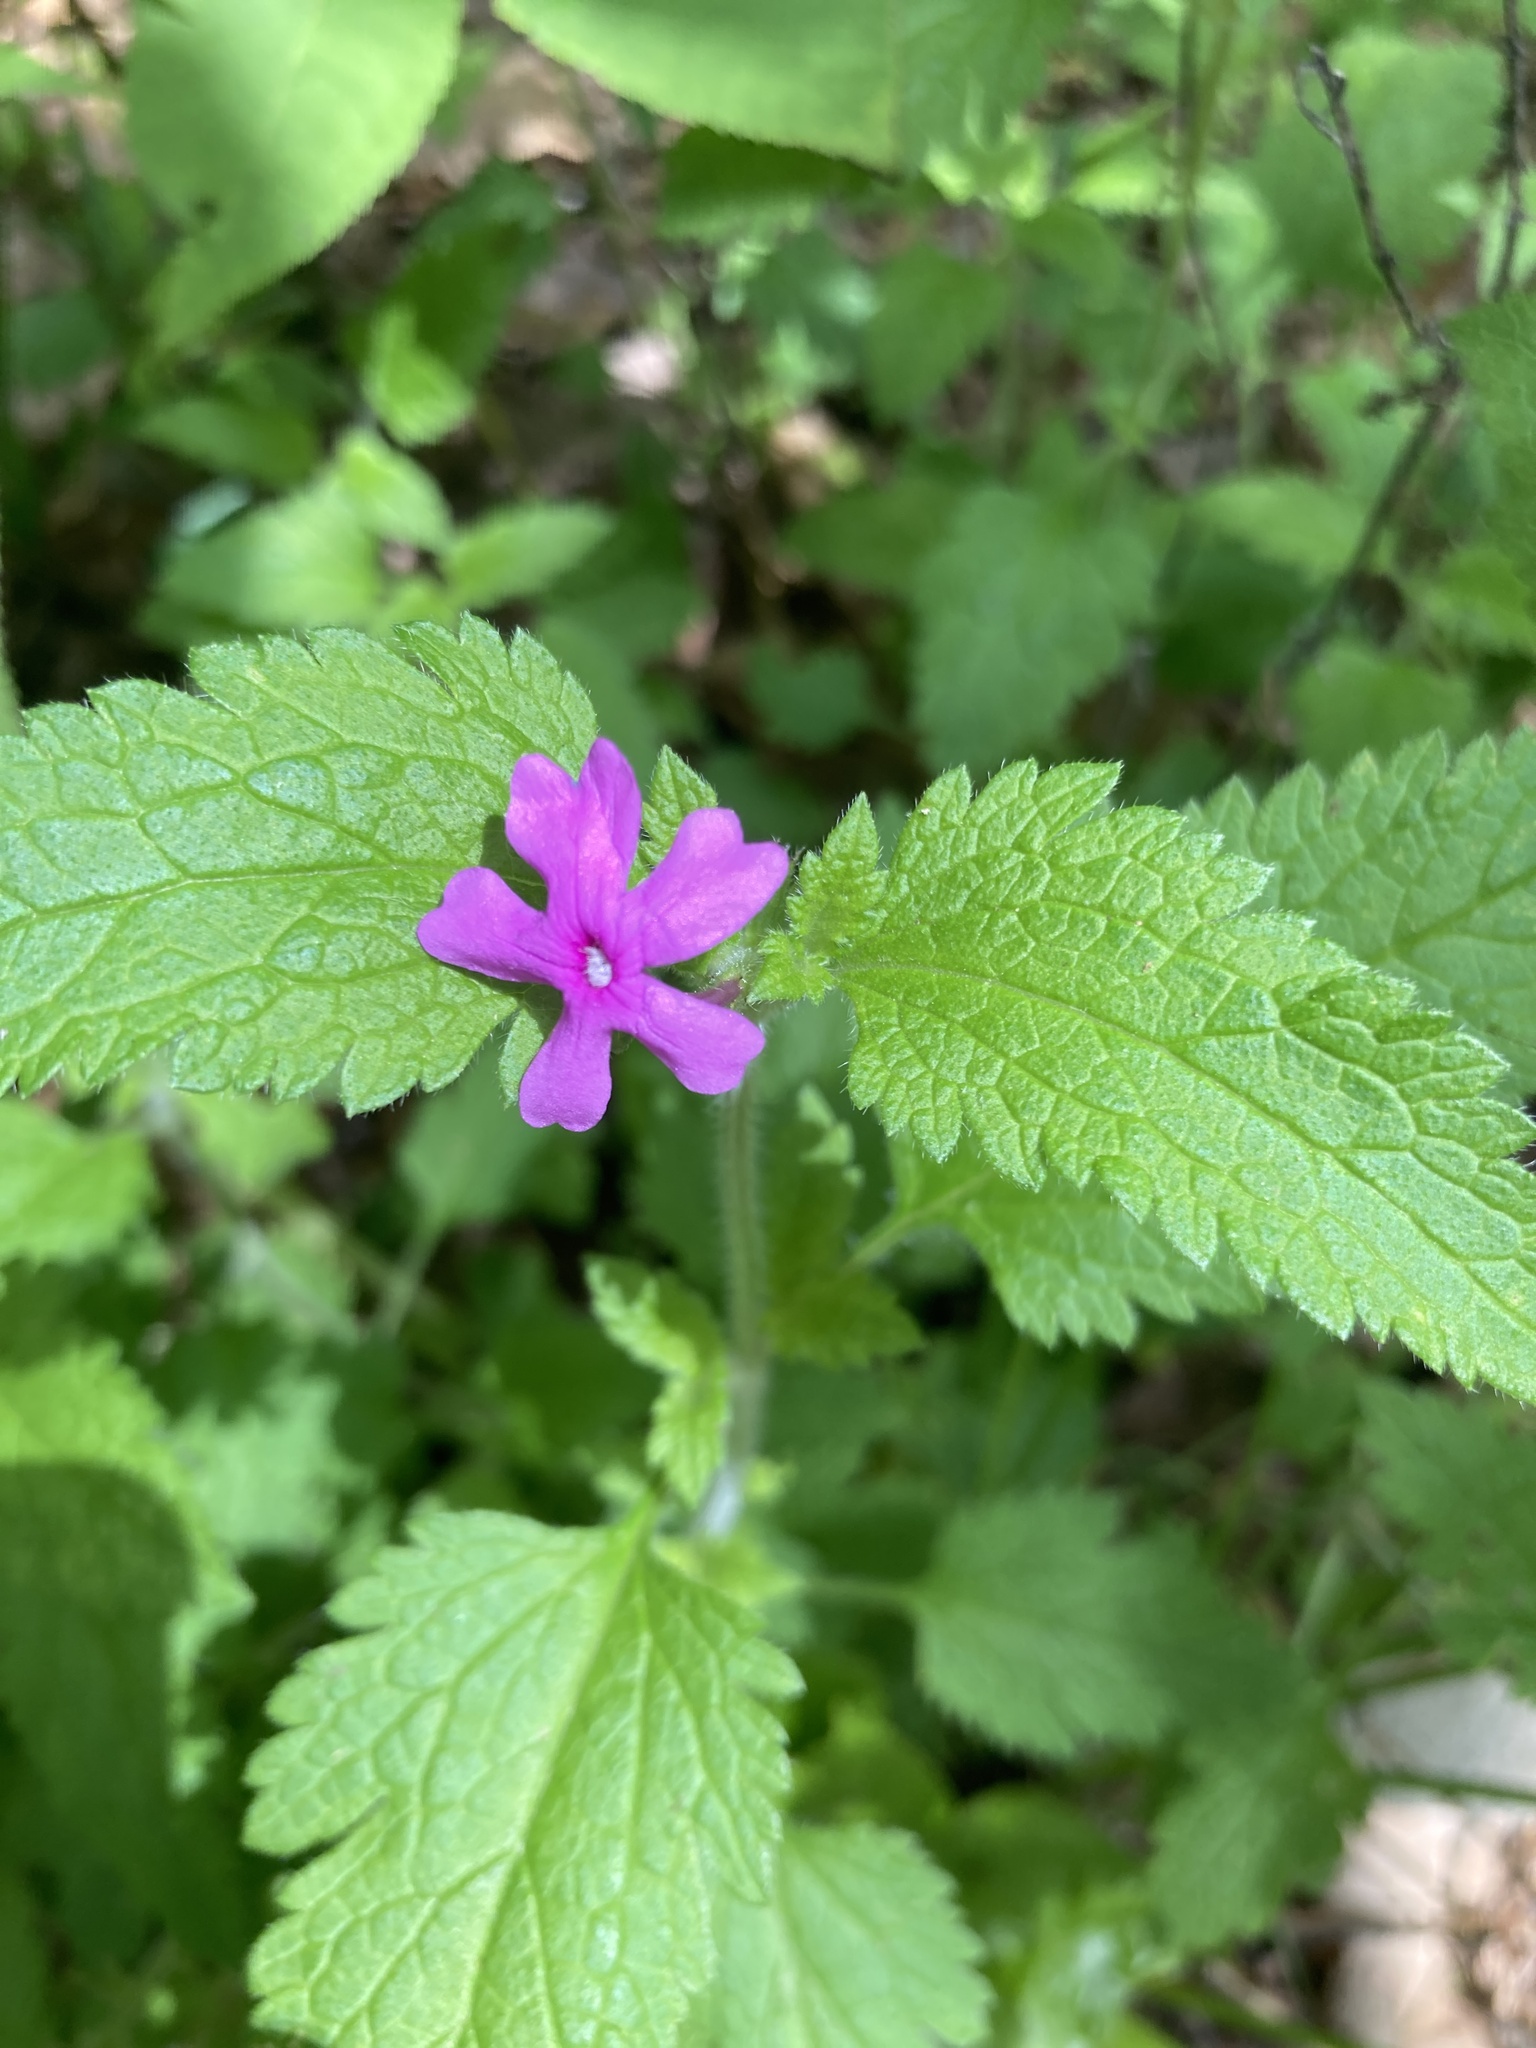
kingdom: Plantae
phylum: Tracheophyta
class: Magnoliopsida
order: Lamiales
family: Verbenaceae
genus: Verbena
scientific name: Verbena canadensis
